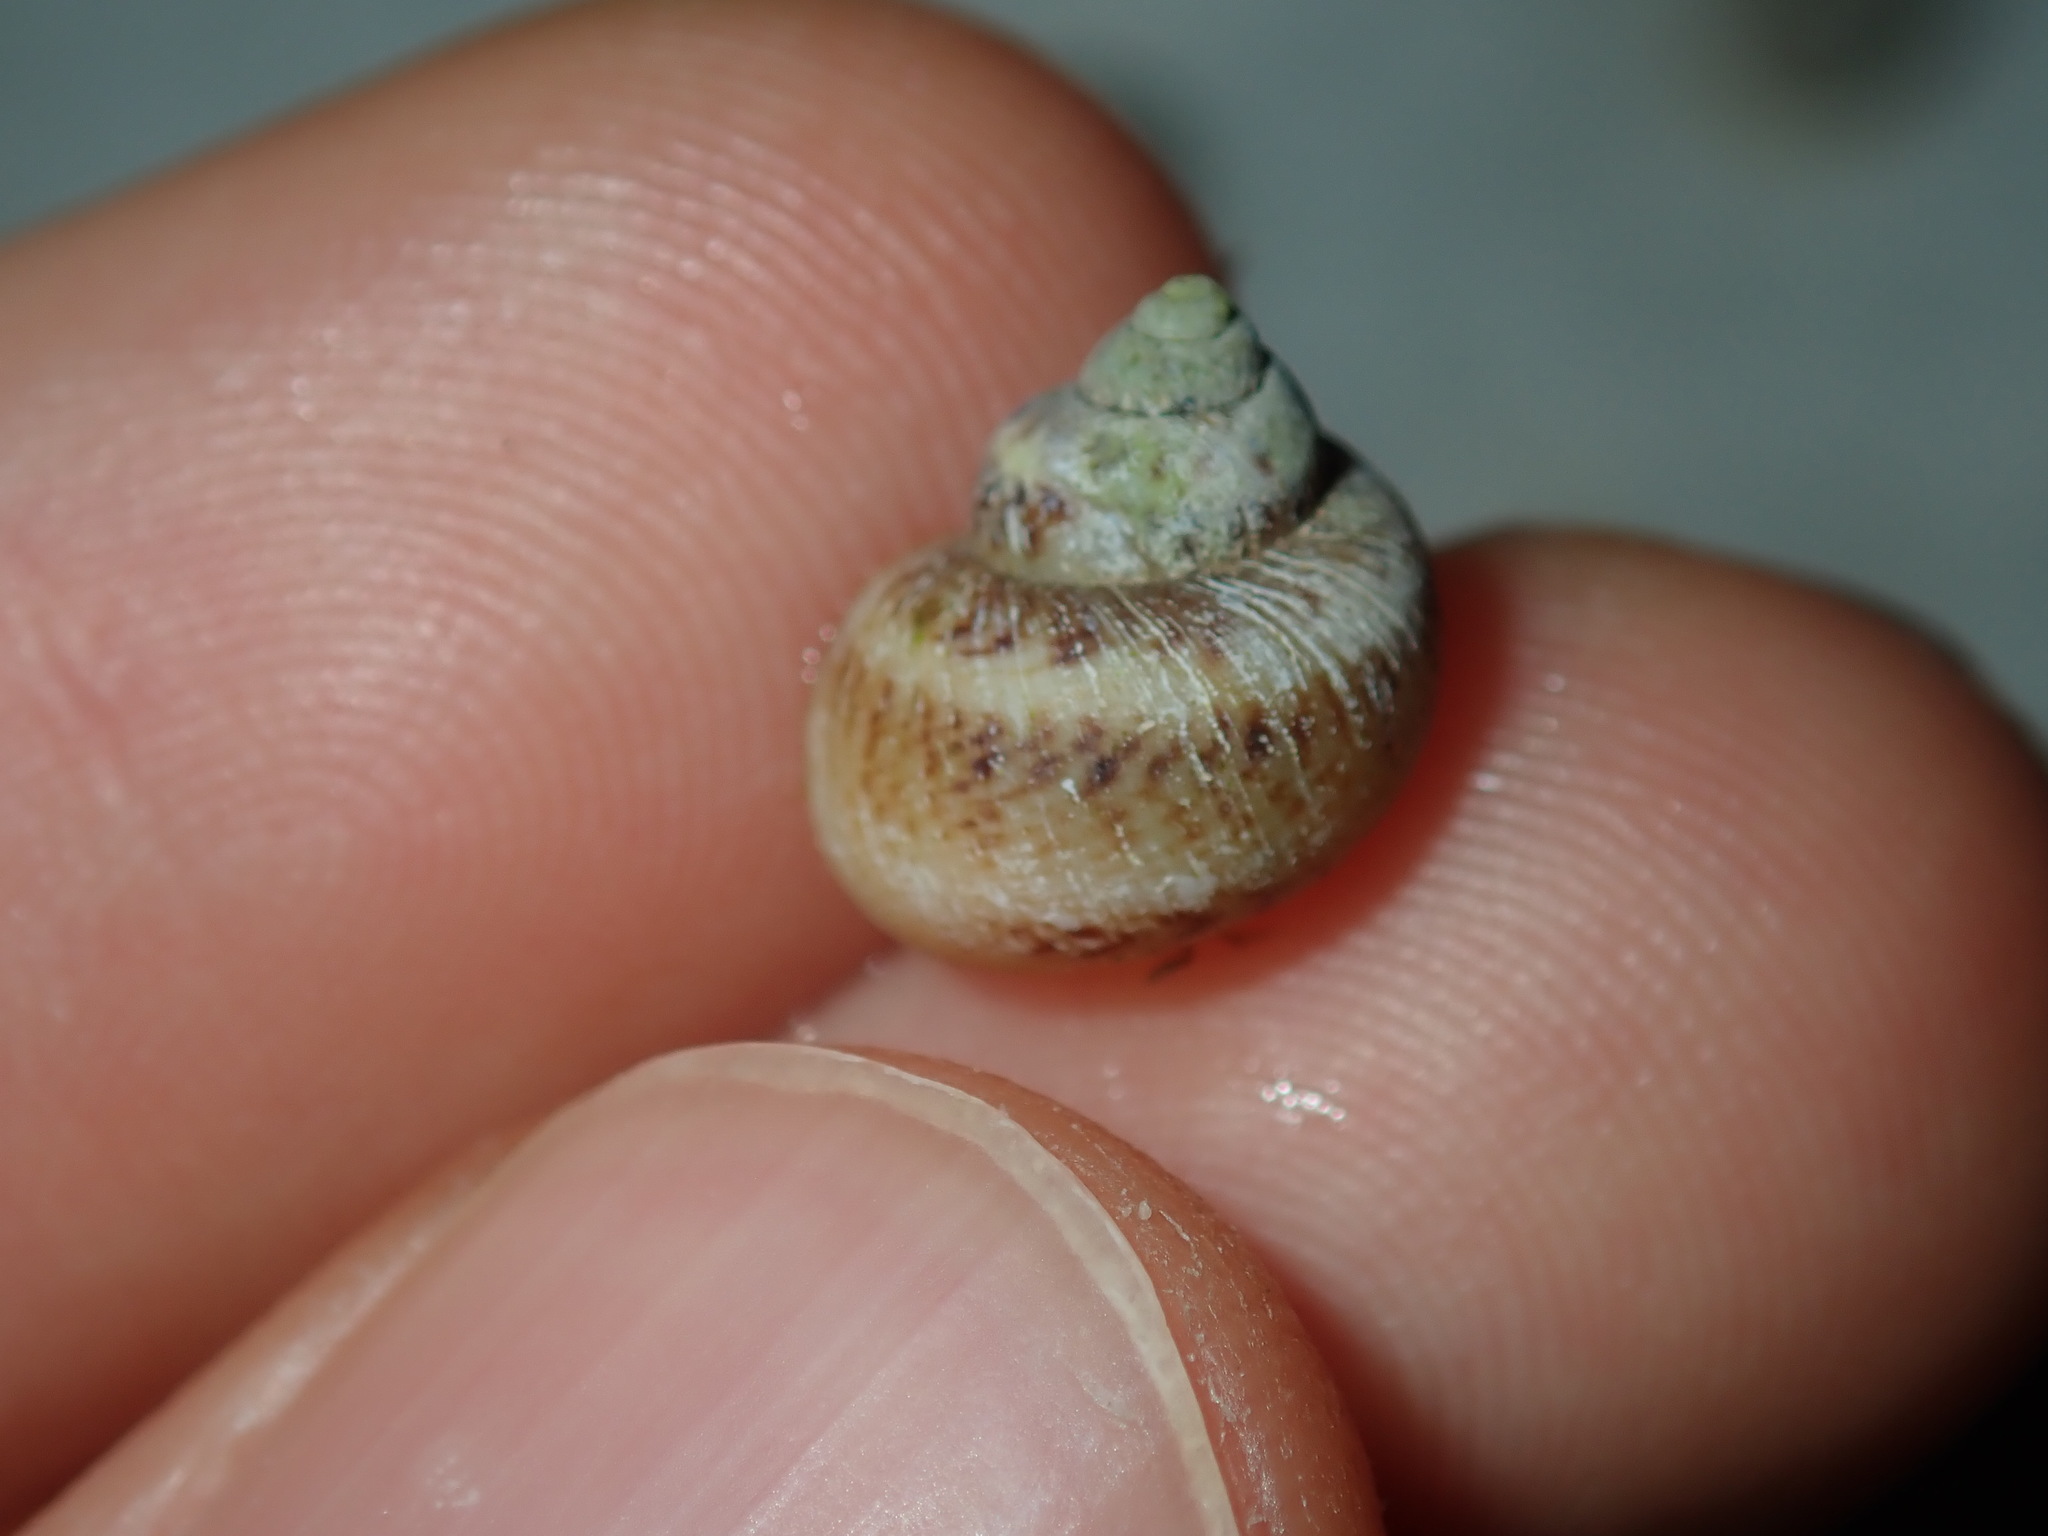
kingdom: Animalia
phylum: Mollusca
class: Gastropoda
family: Amphibolidae
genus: Phallomedusa
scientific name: Phallomedusa solida
